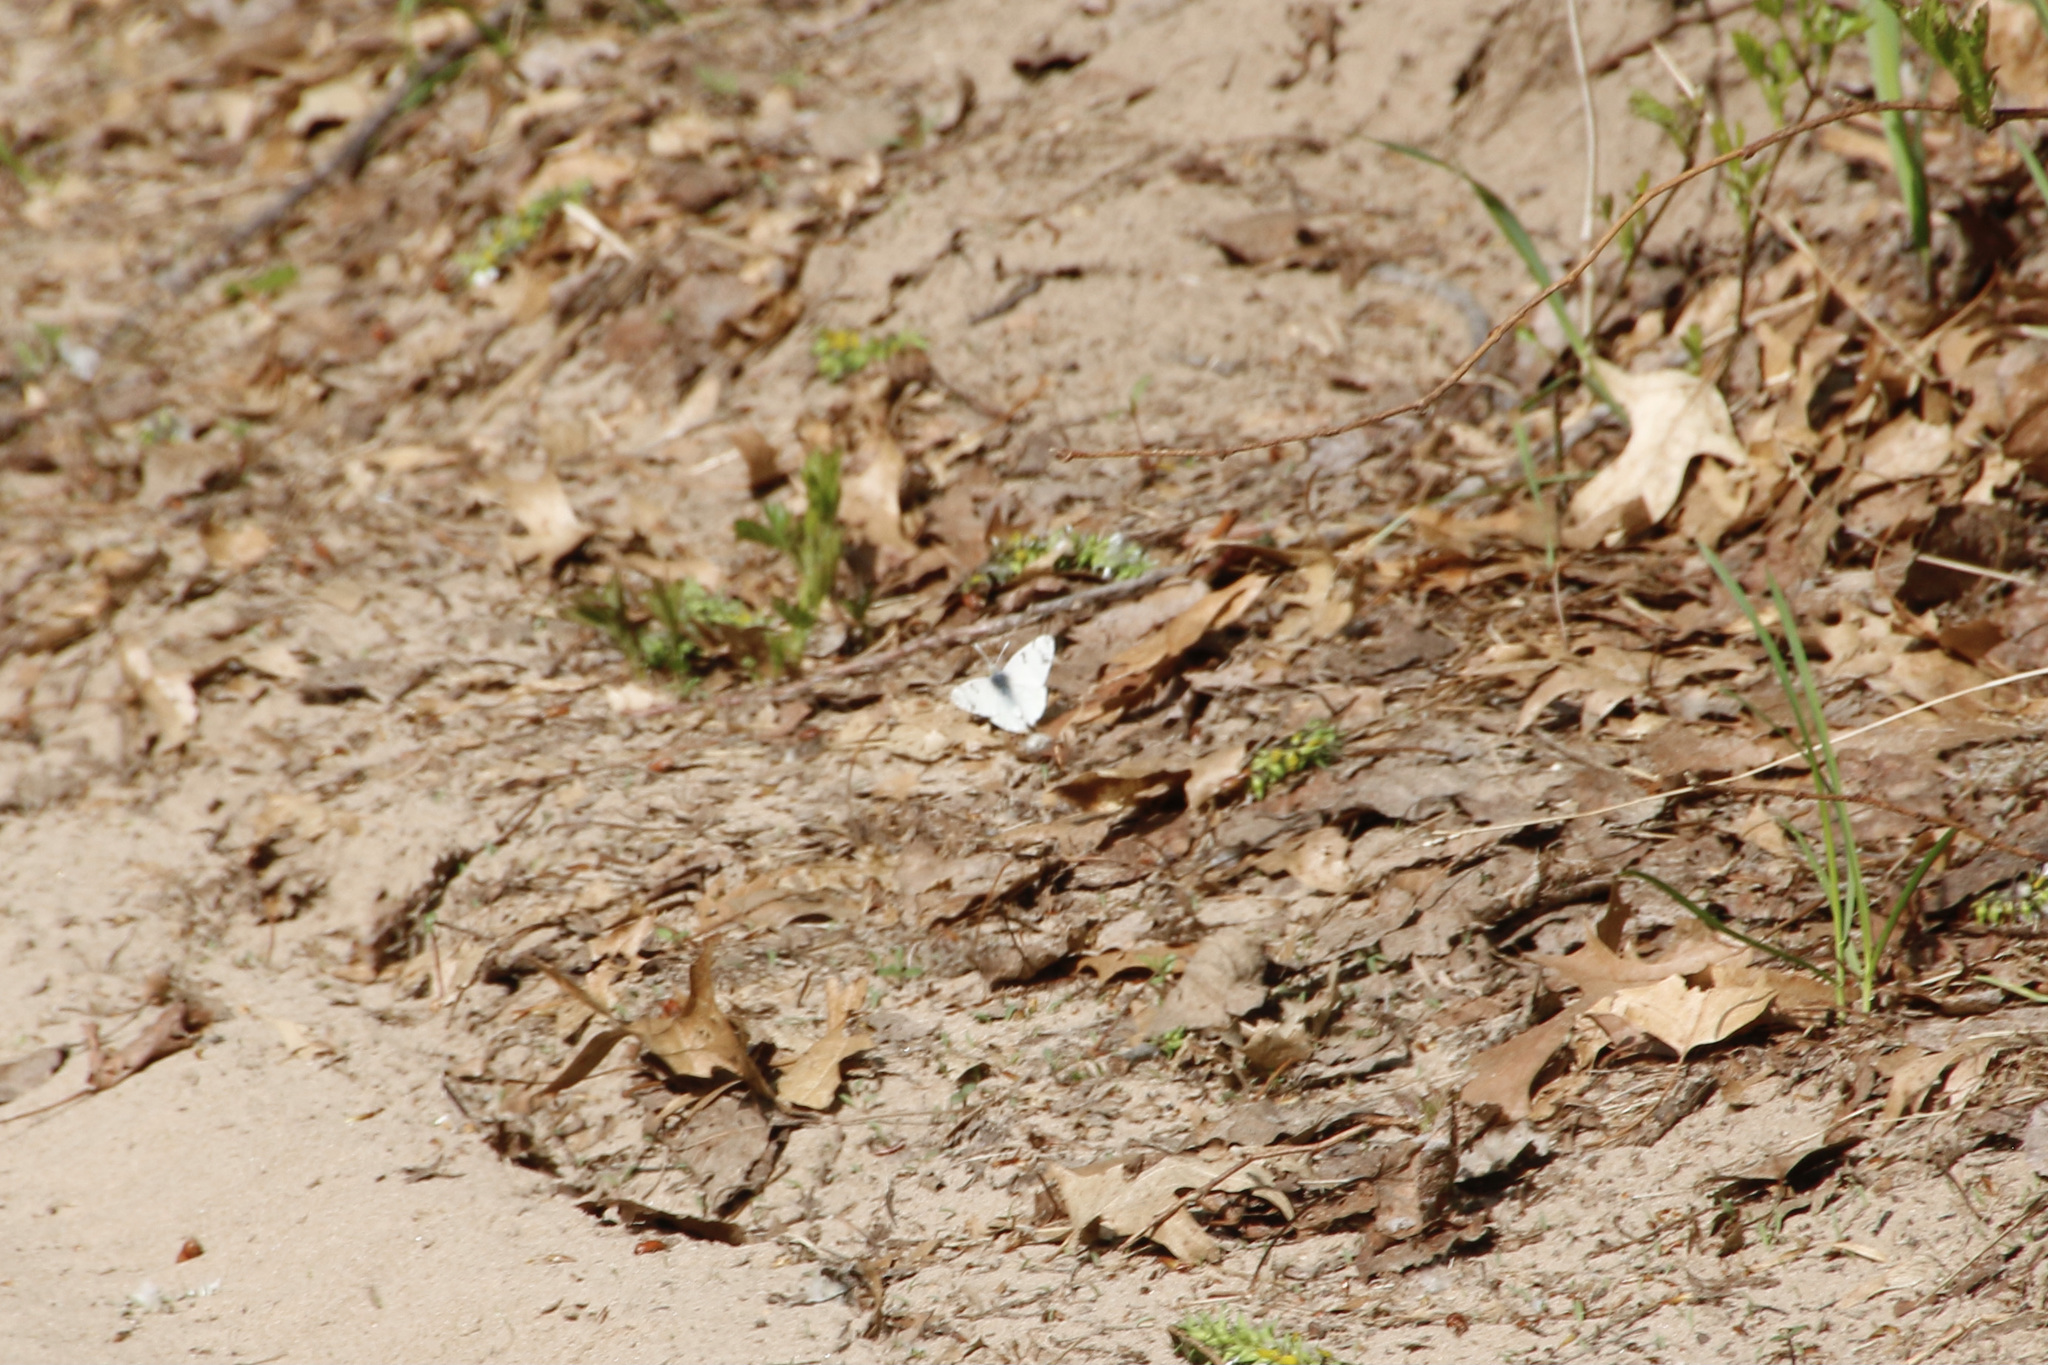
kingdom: Animalia
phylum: Arthropoda
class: Insecta
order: Lepidoptera
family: Pieridae
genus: Euchloe
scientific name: Euchloe olympia
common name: Olympia
